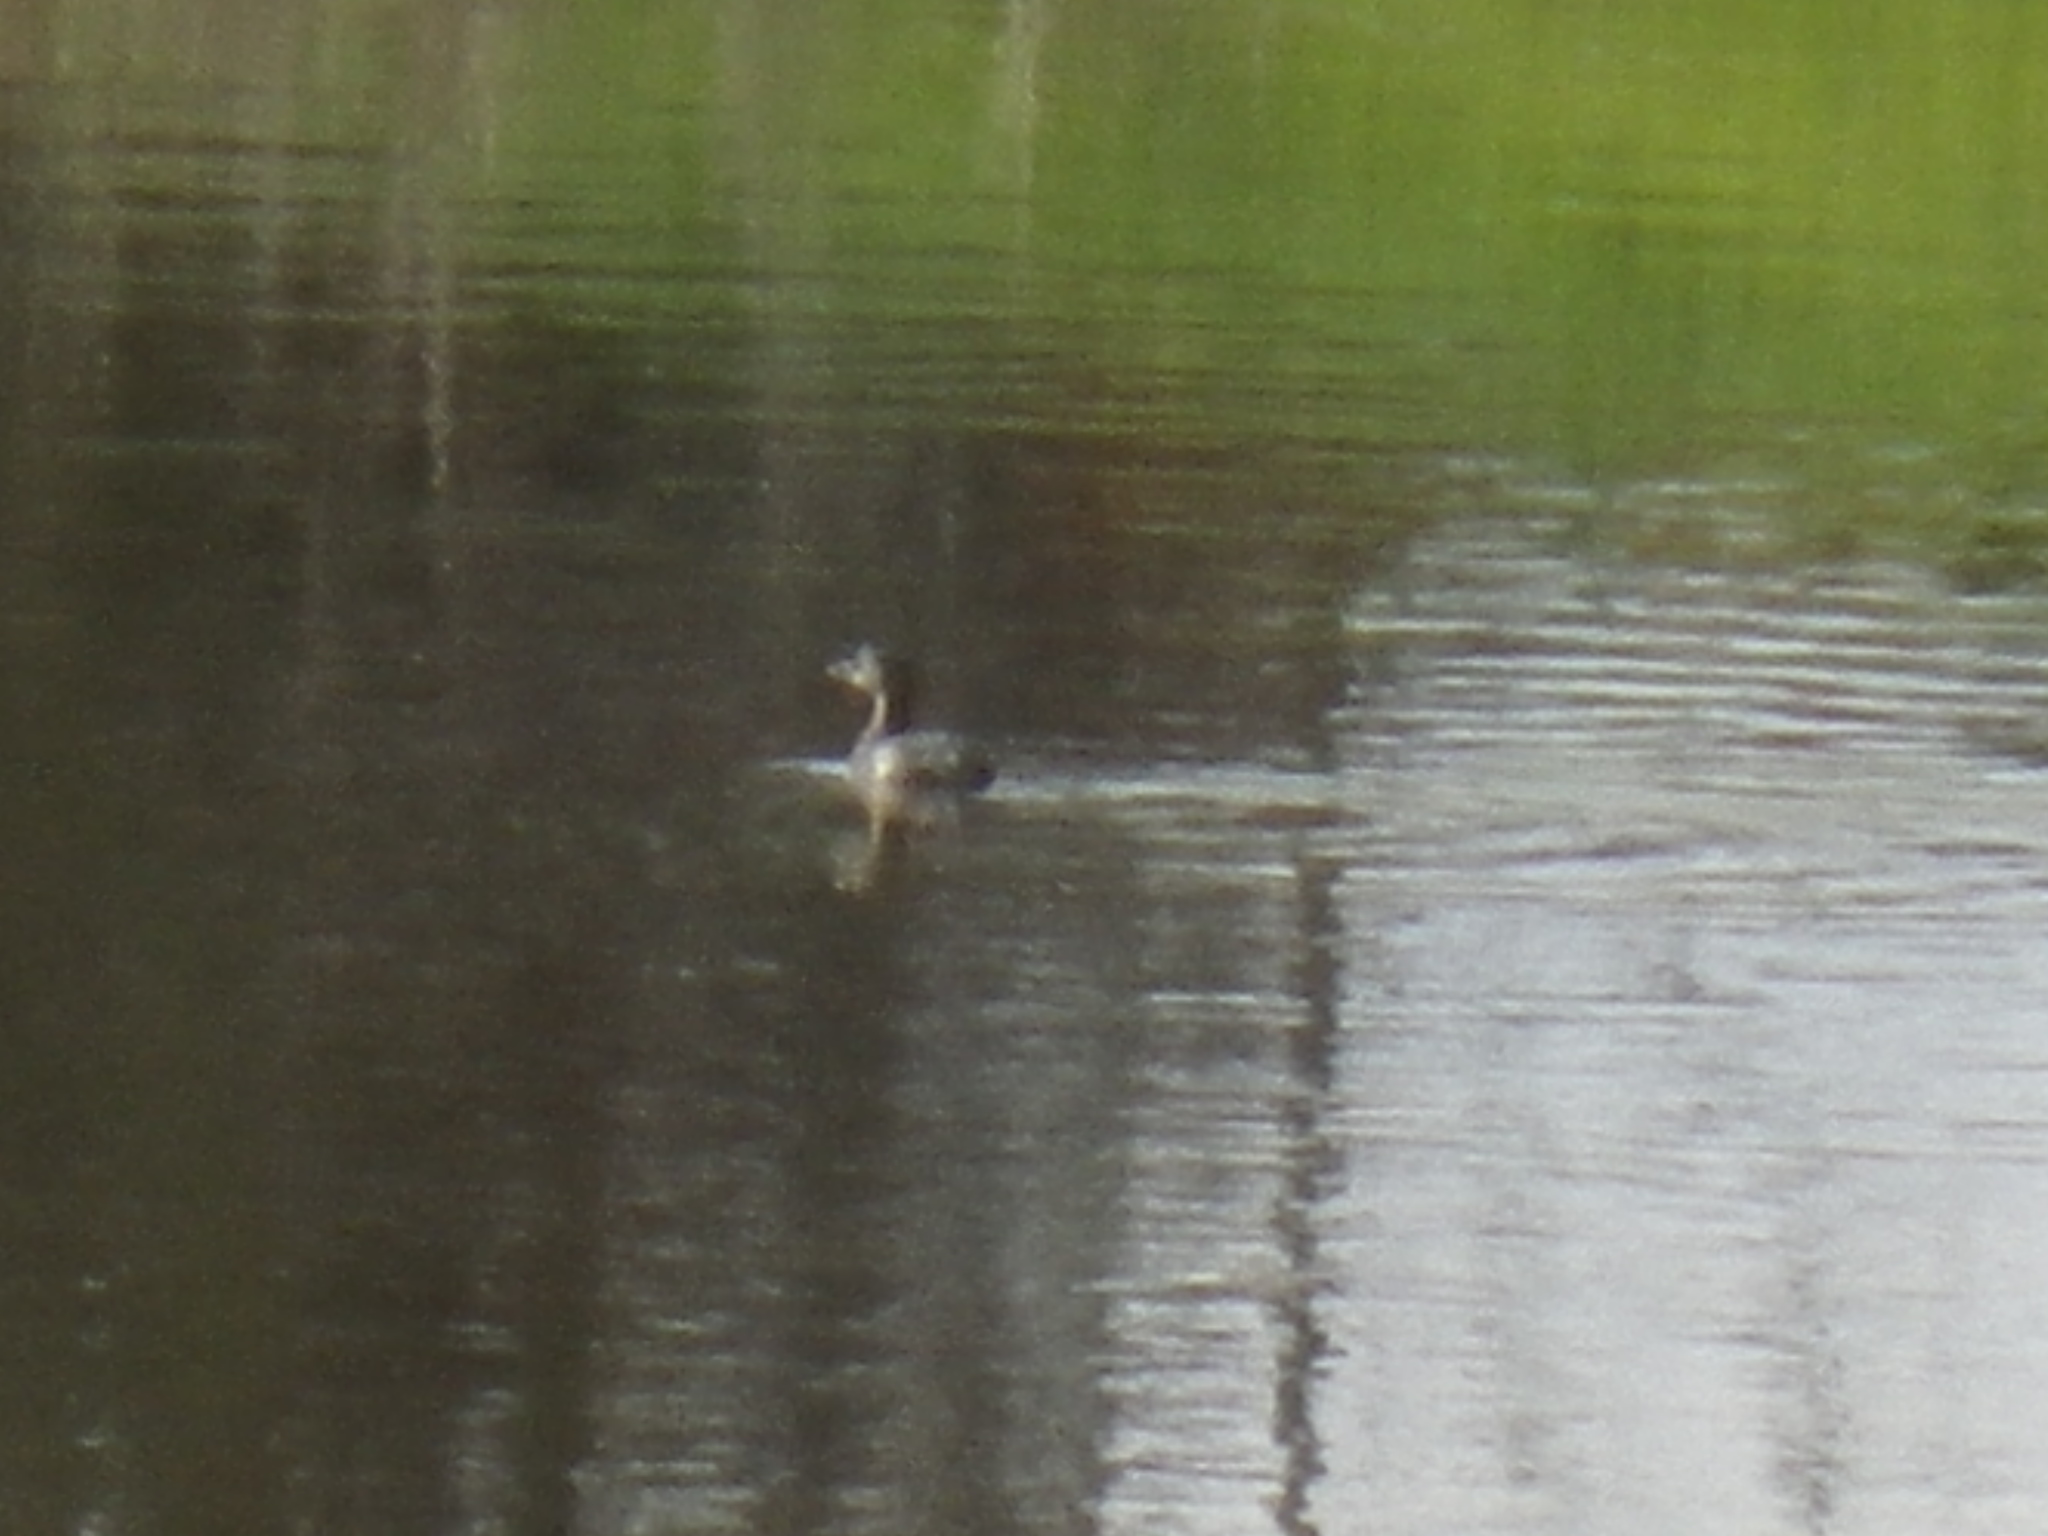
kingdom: Animalia
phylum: Chordata
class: Aves
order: Podicipediformes
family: Podicipedidae
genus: Podilymbus
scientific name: Podilymbus podiceps
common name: Pied-billed grebe
